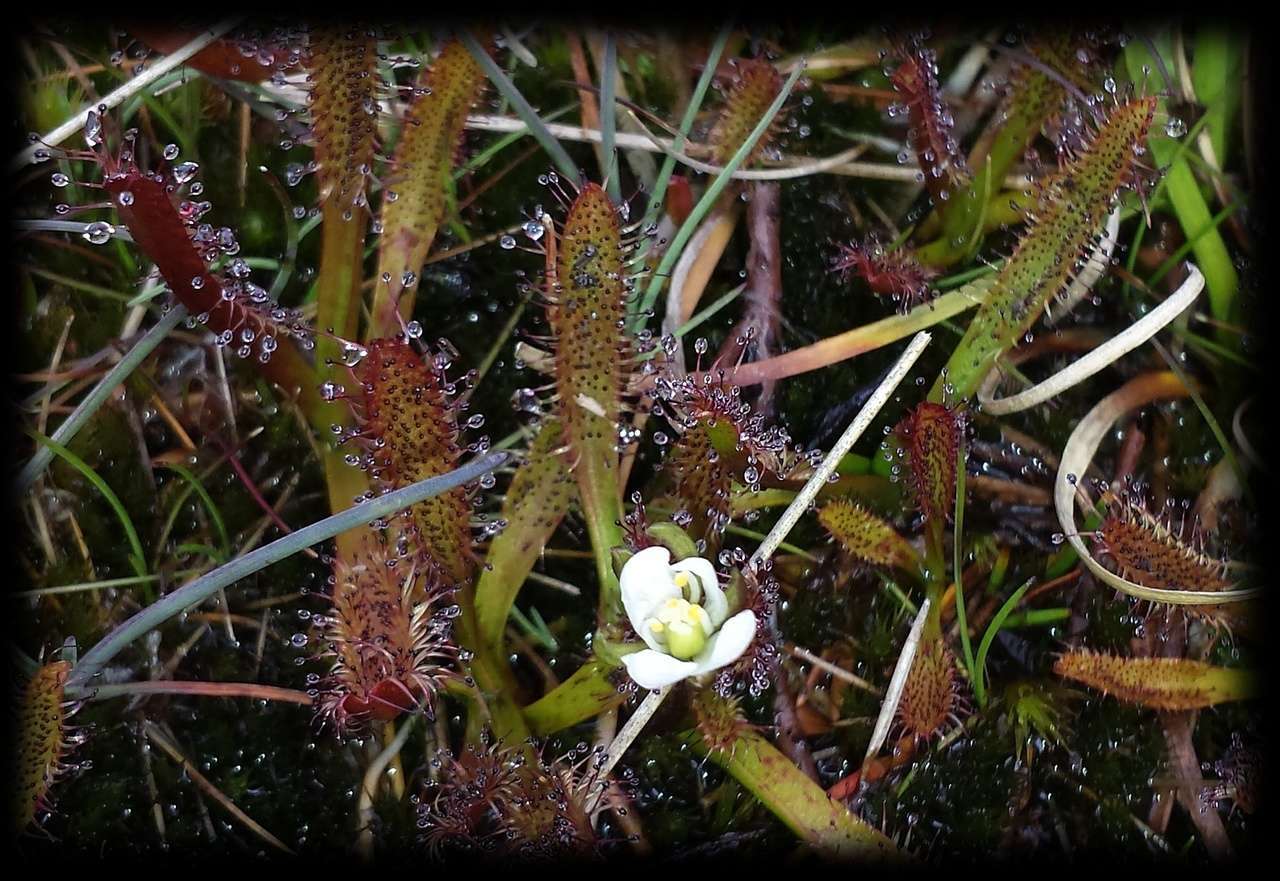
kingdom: Plantae
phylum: Tracheophyta
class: Magnoliopsida
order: Caryophyllales
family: Droseraceae
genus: Drosera
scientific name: Drosera arcturi
